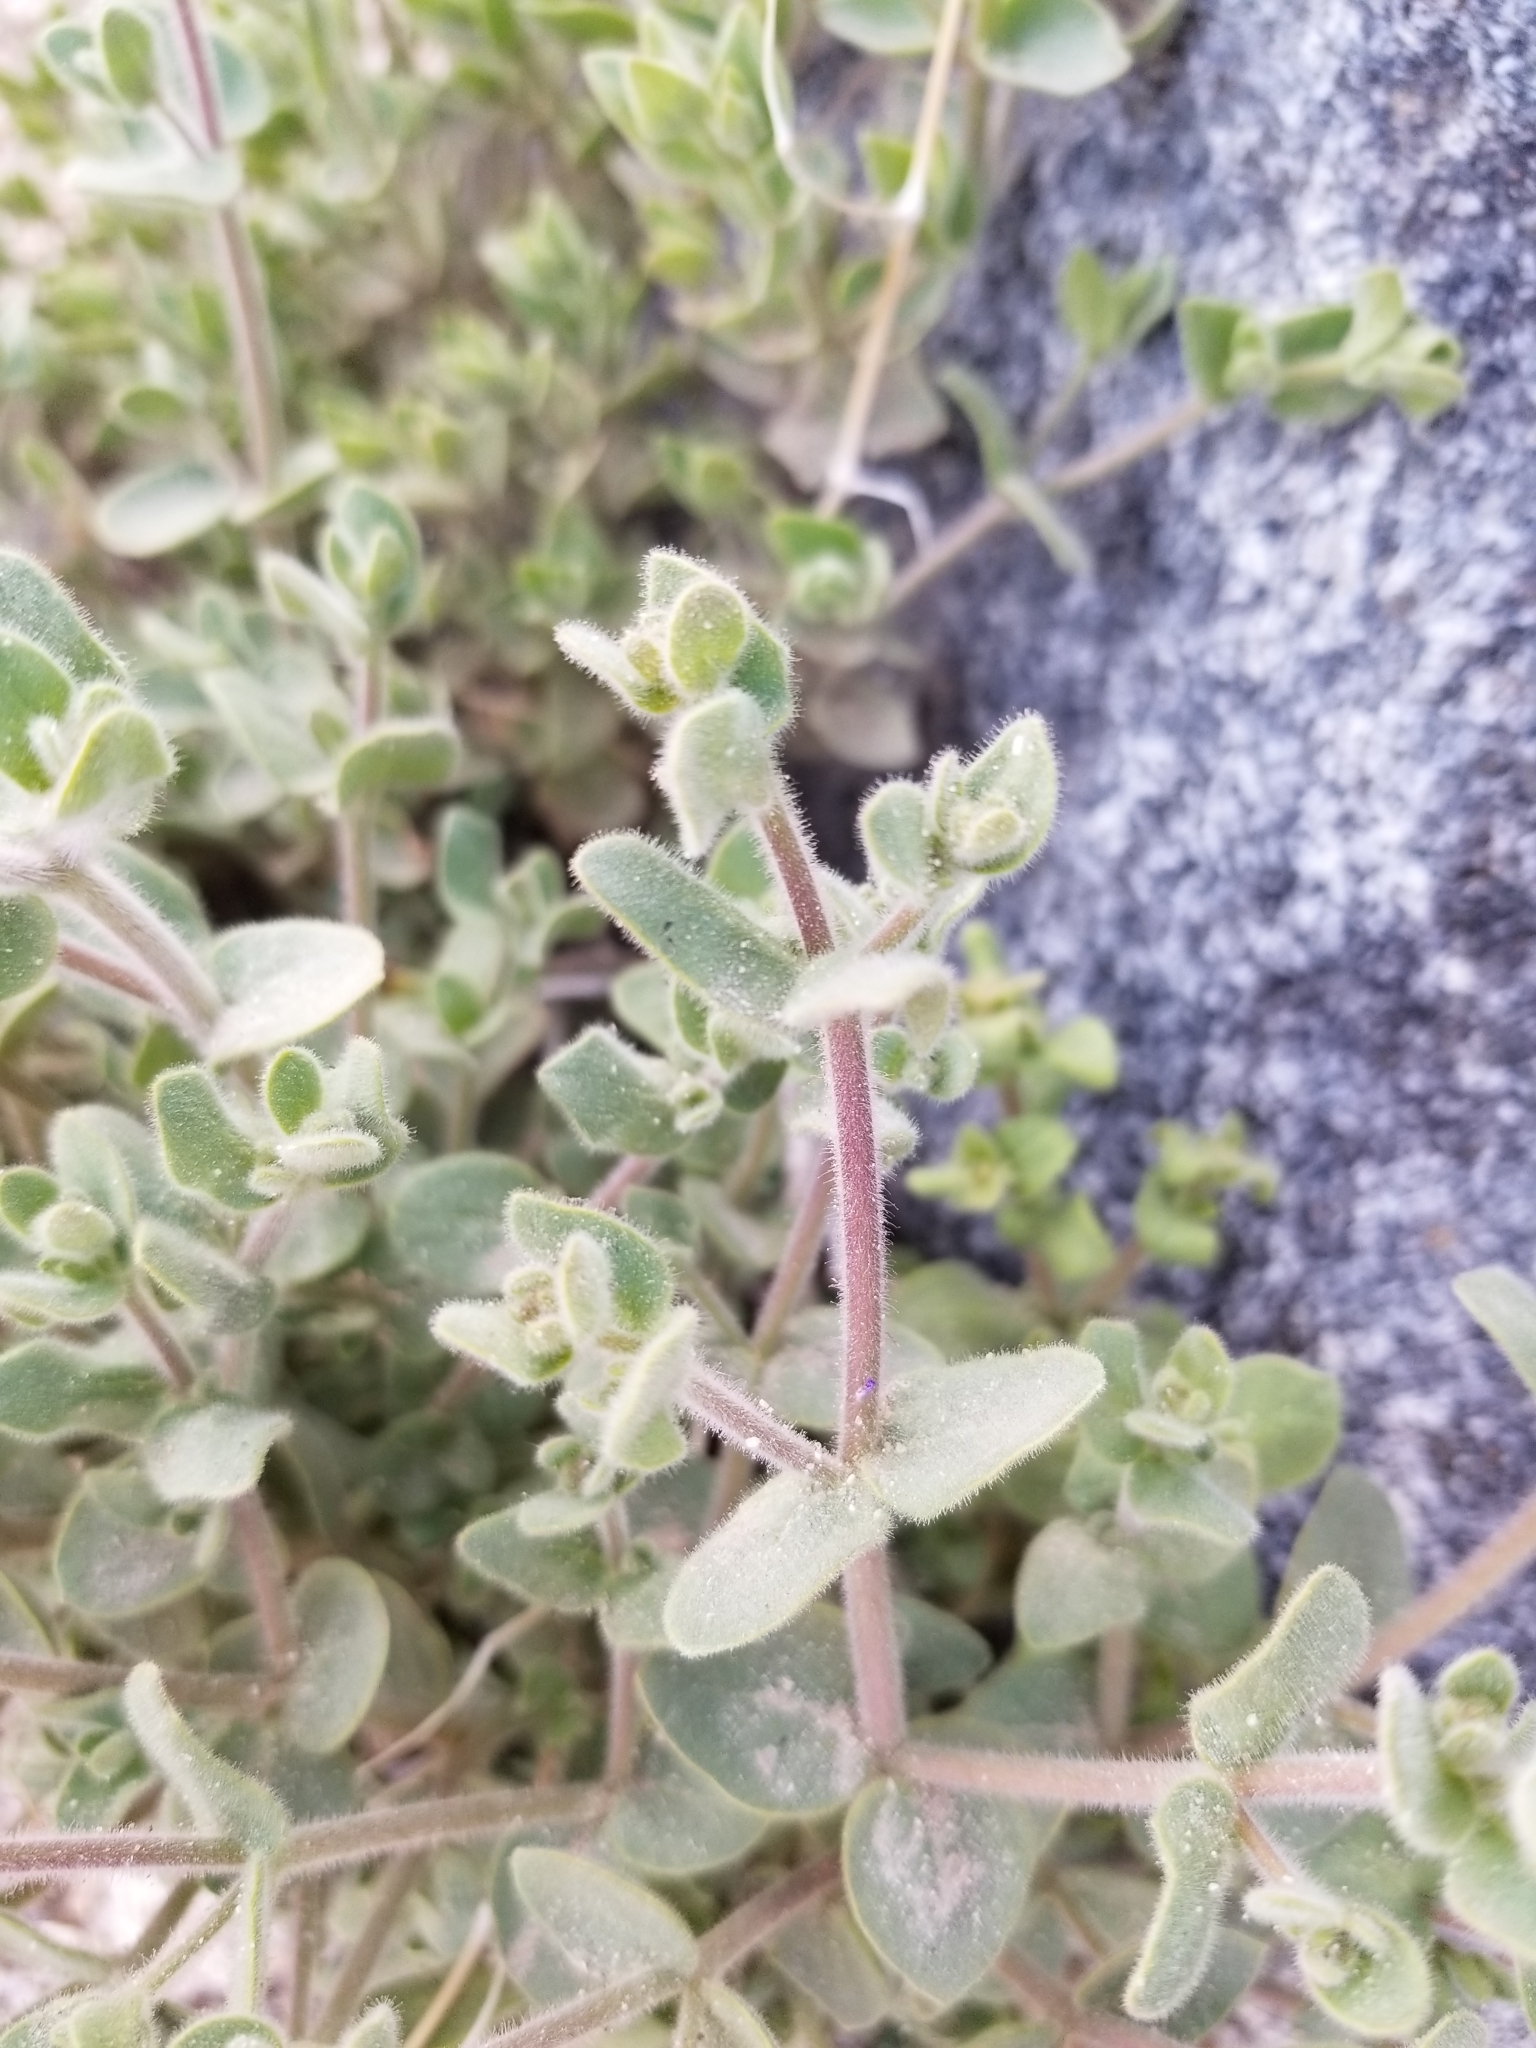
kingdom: Plantae
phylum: Tracheophyta
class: Magnoliopsida
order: Caryophyllales
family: Nyctaginaceae
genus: Mirabilis
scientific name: Mirabilis laevis
